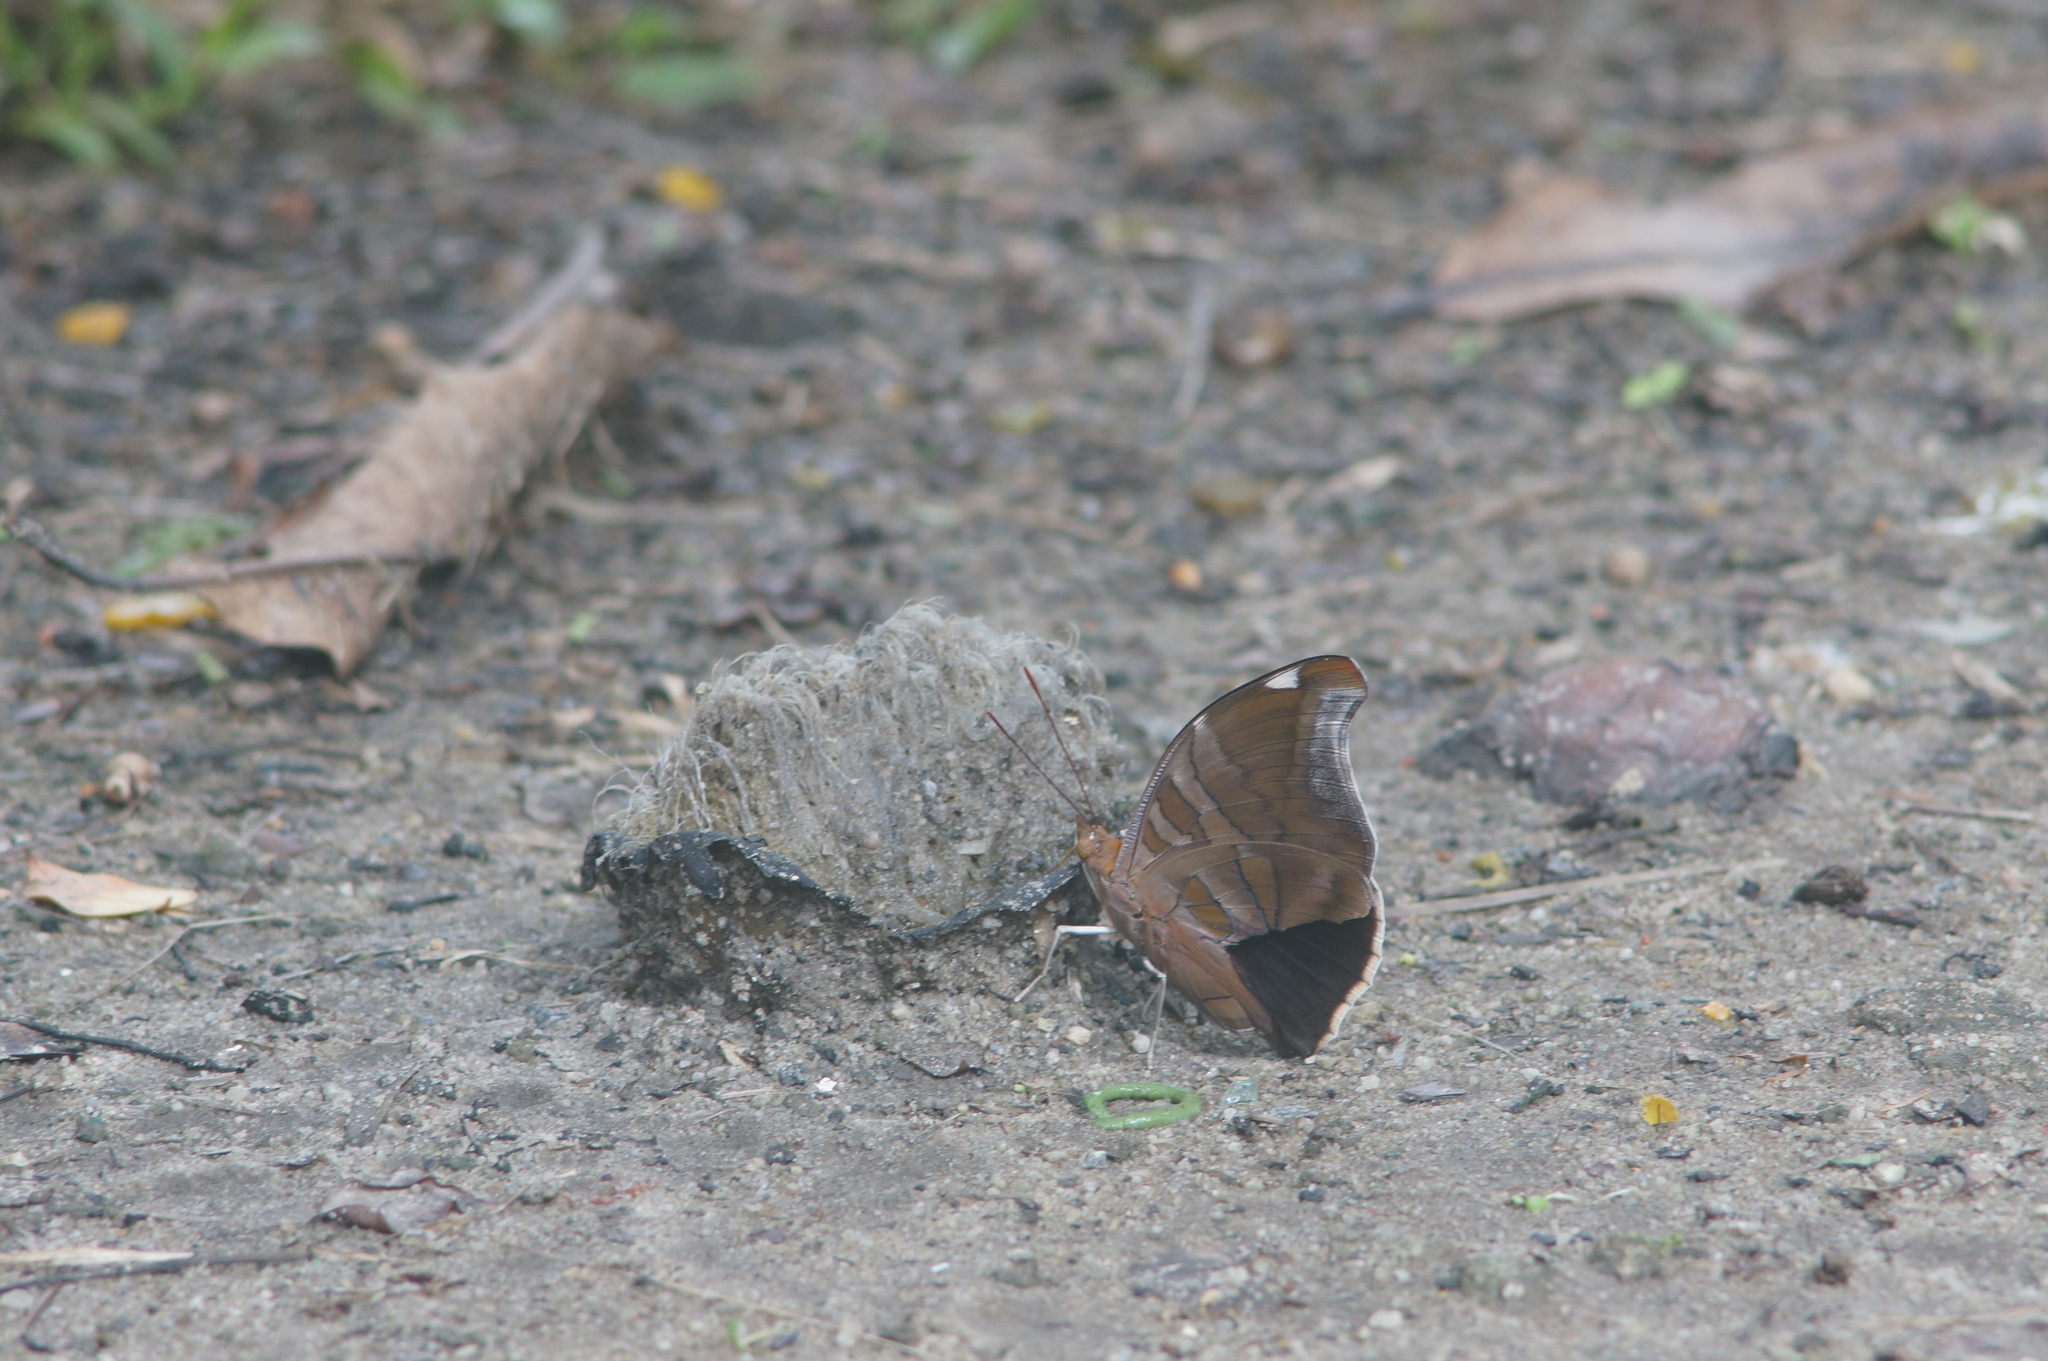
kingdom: Animalia
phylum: Arthropoda
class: Insecta
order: Lepidoptera
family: Nymphalidae
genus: Historis
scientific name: Historis odius
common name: Orion cecropian
